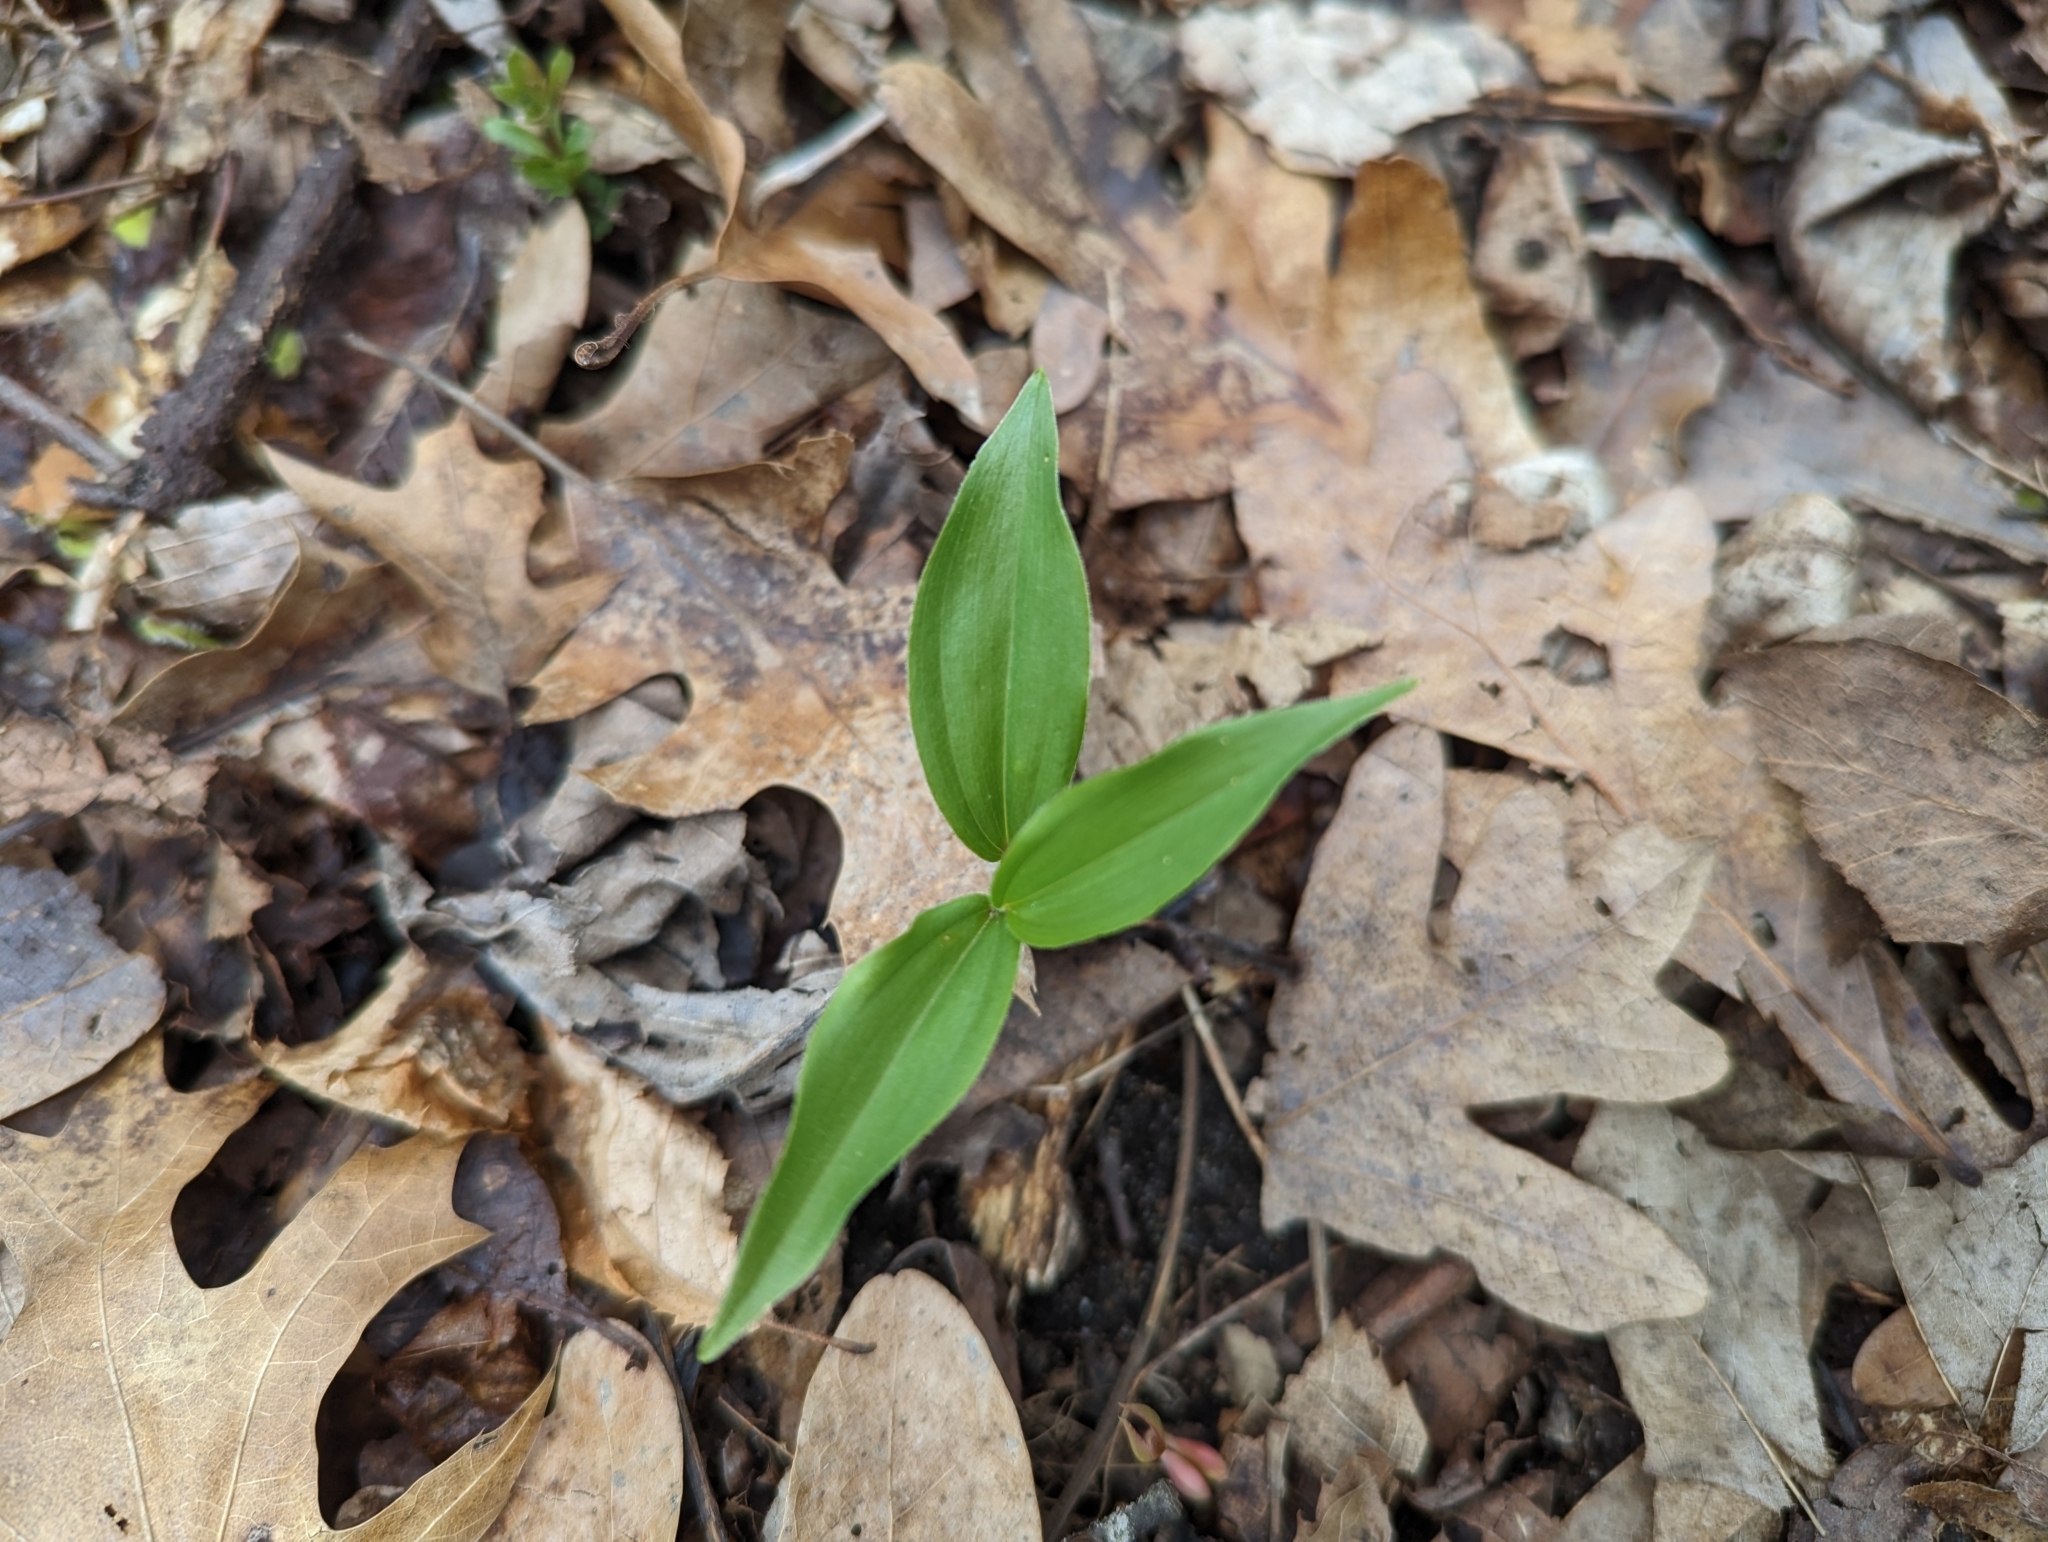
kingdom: Plantae
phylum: Tracheophyta
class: Liliopsida
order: Asparagales
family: Asparagaceae
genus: Maianthemum
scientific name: Maianthemum racemosum
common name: False spikenard
